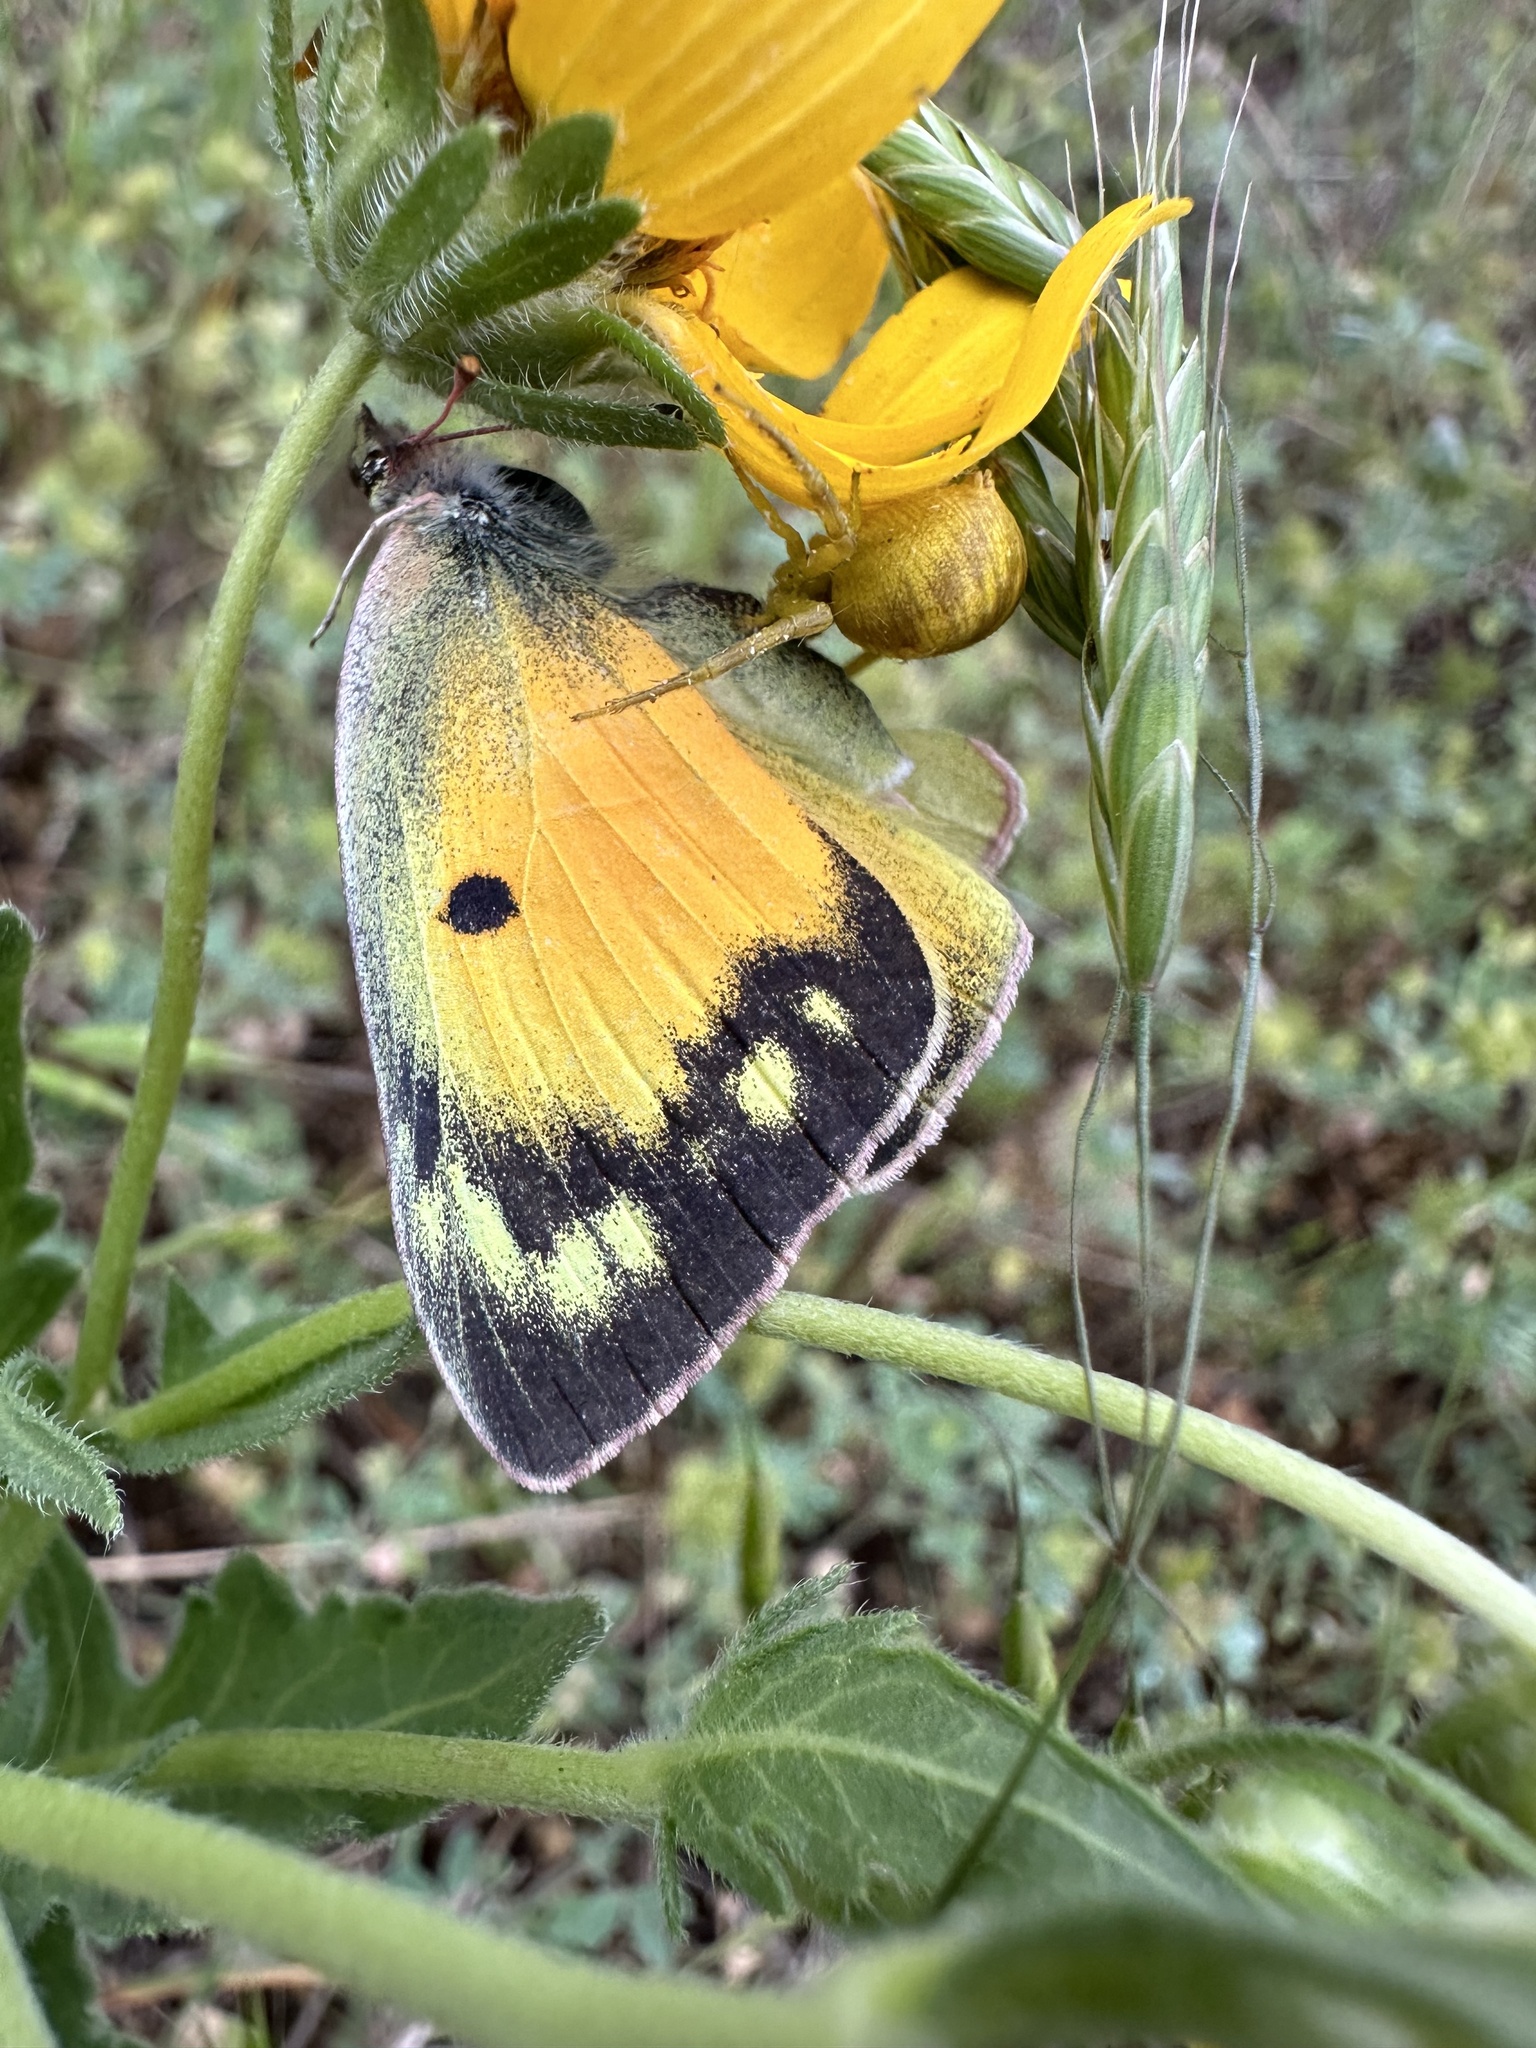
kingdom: Animalia
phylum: Arthropoda
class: Insecta
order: Lepidoptera
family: Pieridae
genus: Colias
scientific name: Colias eurytheme
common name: Alfalfa butterfly
